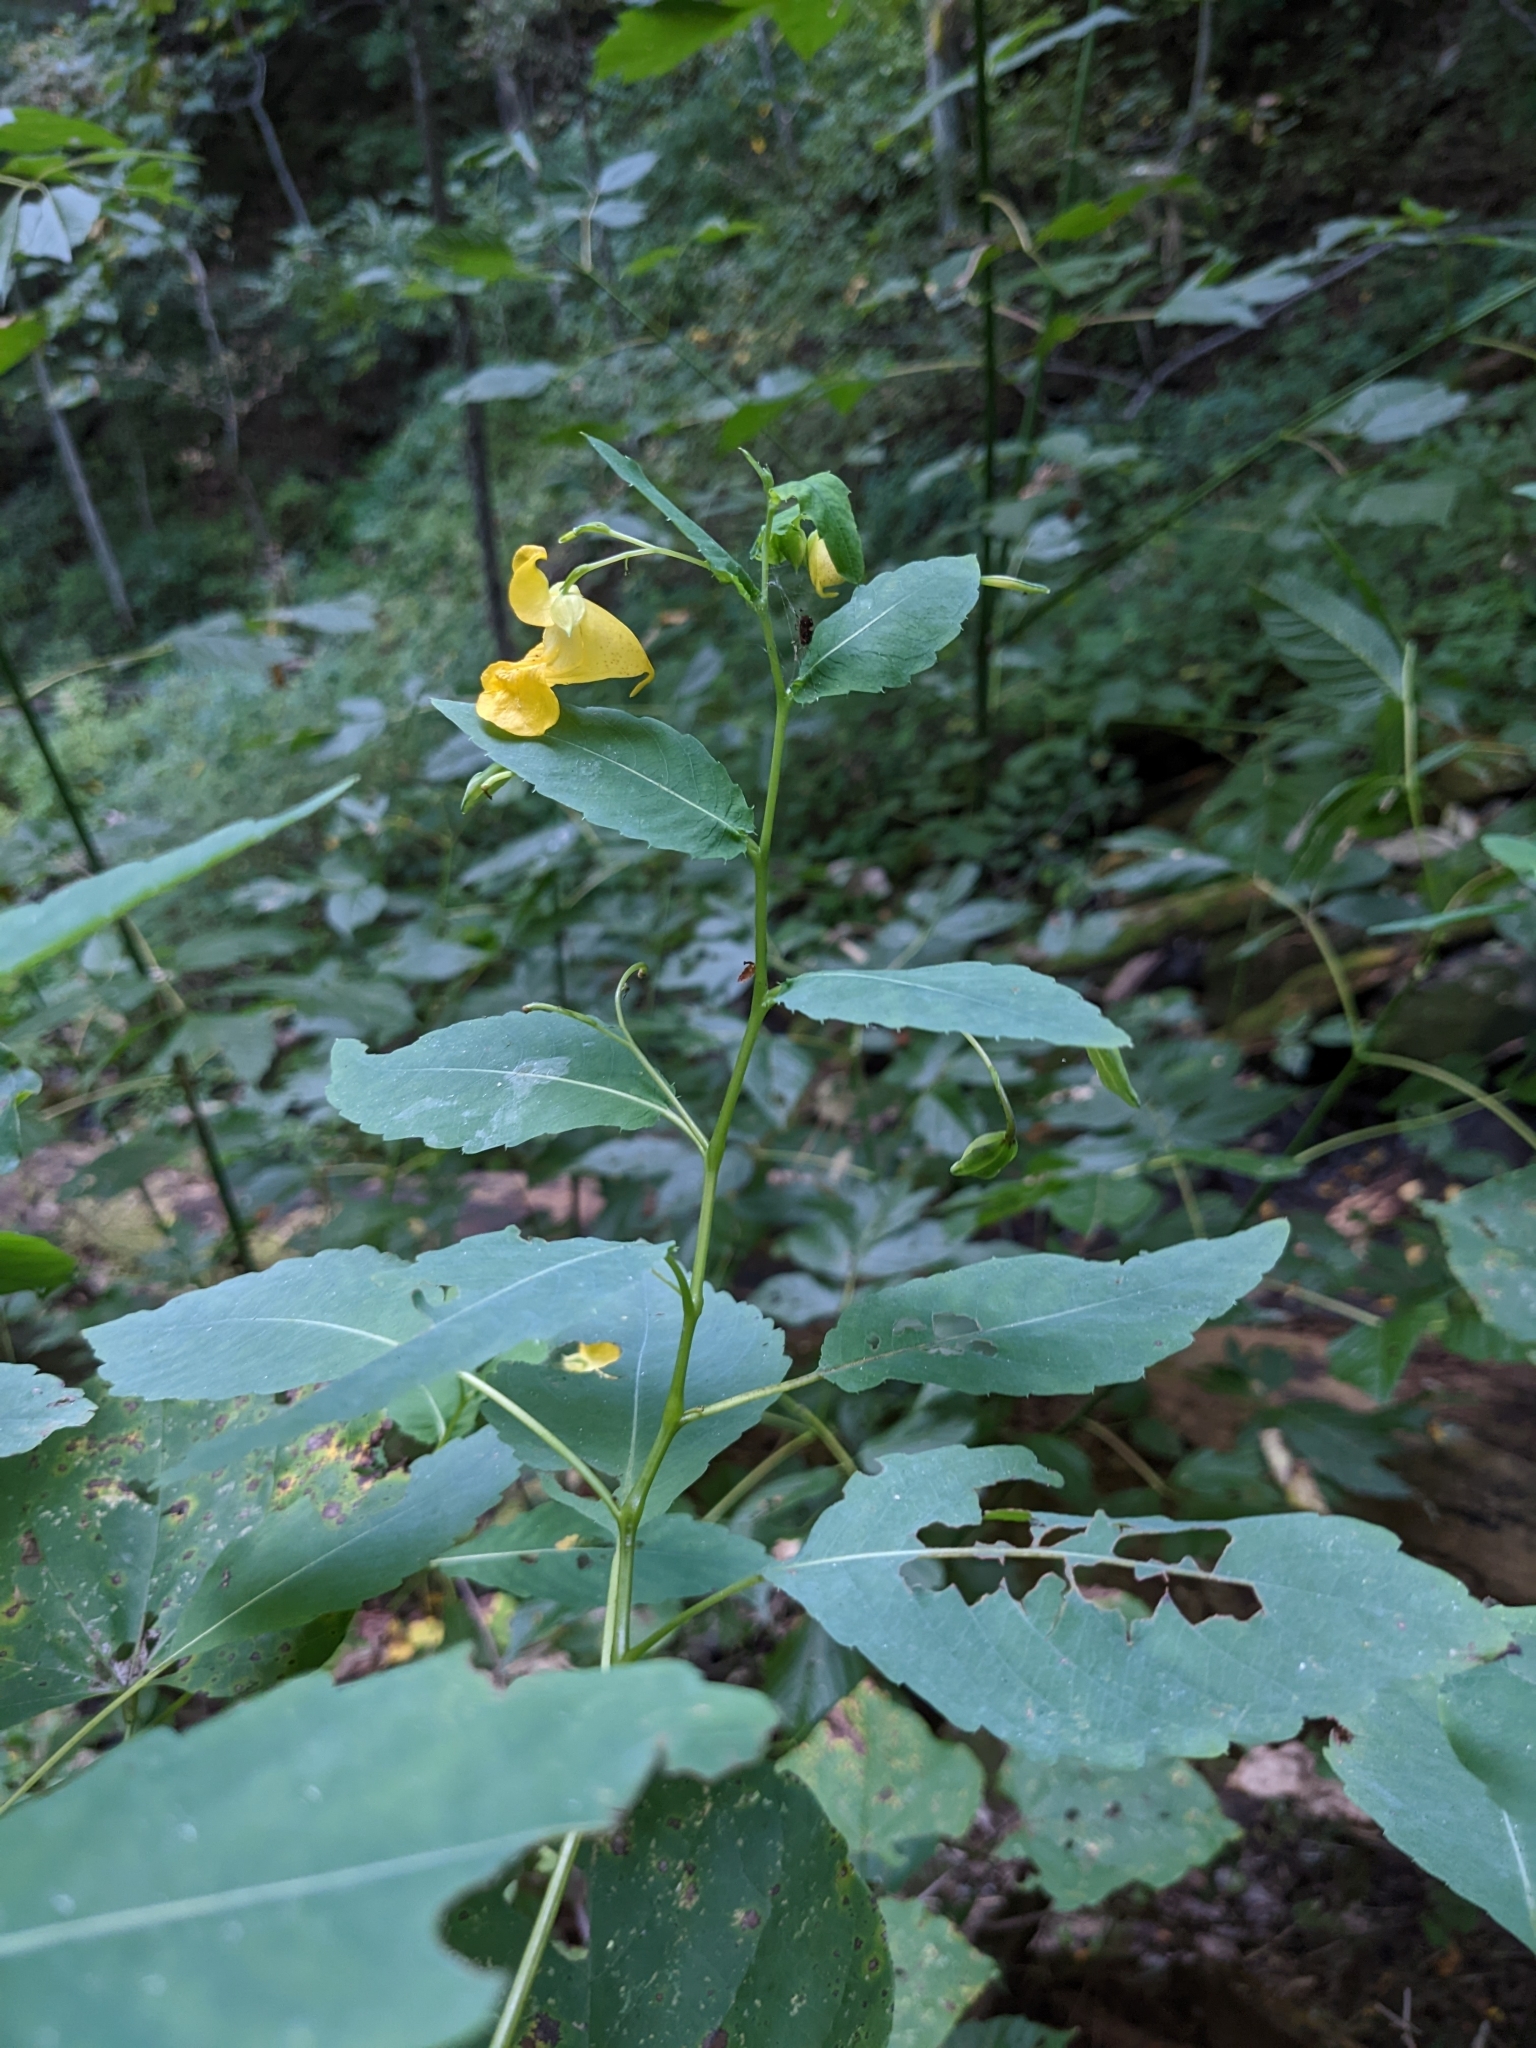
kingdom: Plantae
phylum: Tracheophyta
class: Magnoliopsida
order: Ericales
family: Balsaminaceae
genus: Impatiens
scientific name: Impatiens pallida
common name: Pale snapweed
